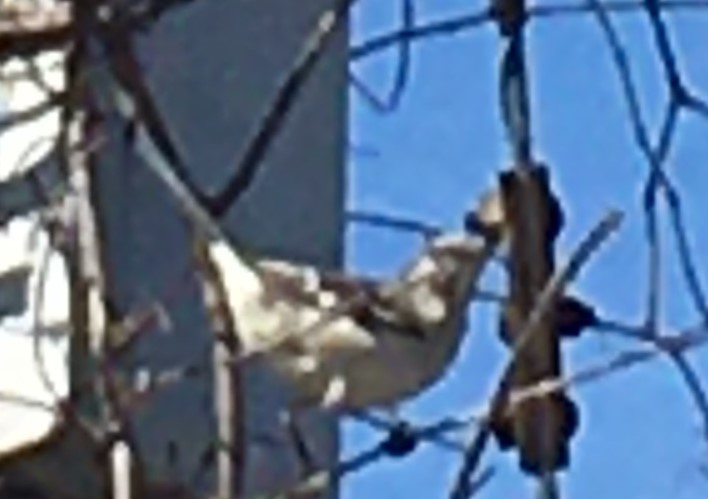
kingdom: Animalia
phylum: Chordata
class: Aves
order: Passeriformes
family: Mimidae
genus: Mimus
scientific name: Mimus polyglottos
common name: Northern mockingbird
